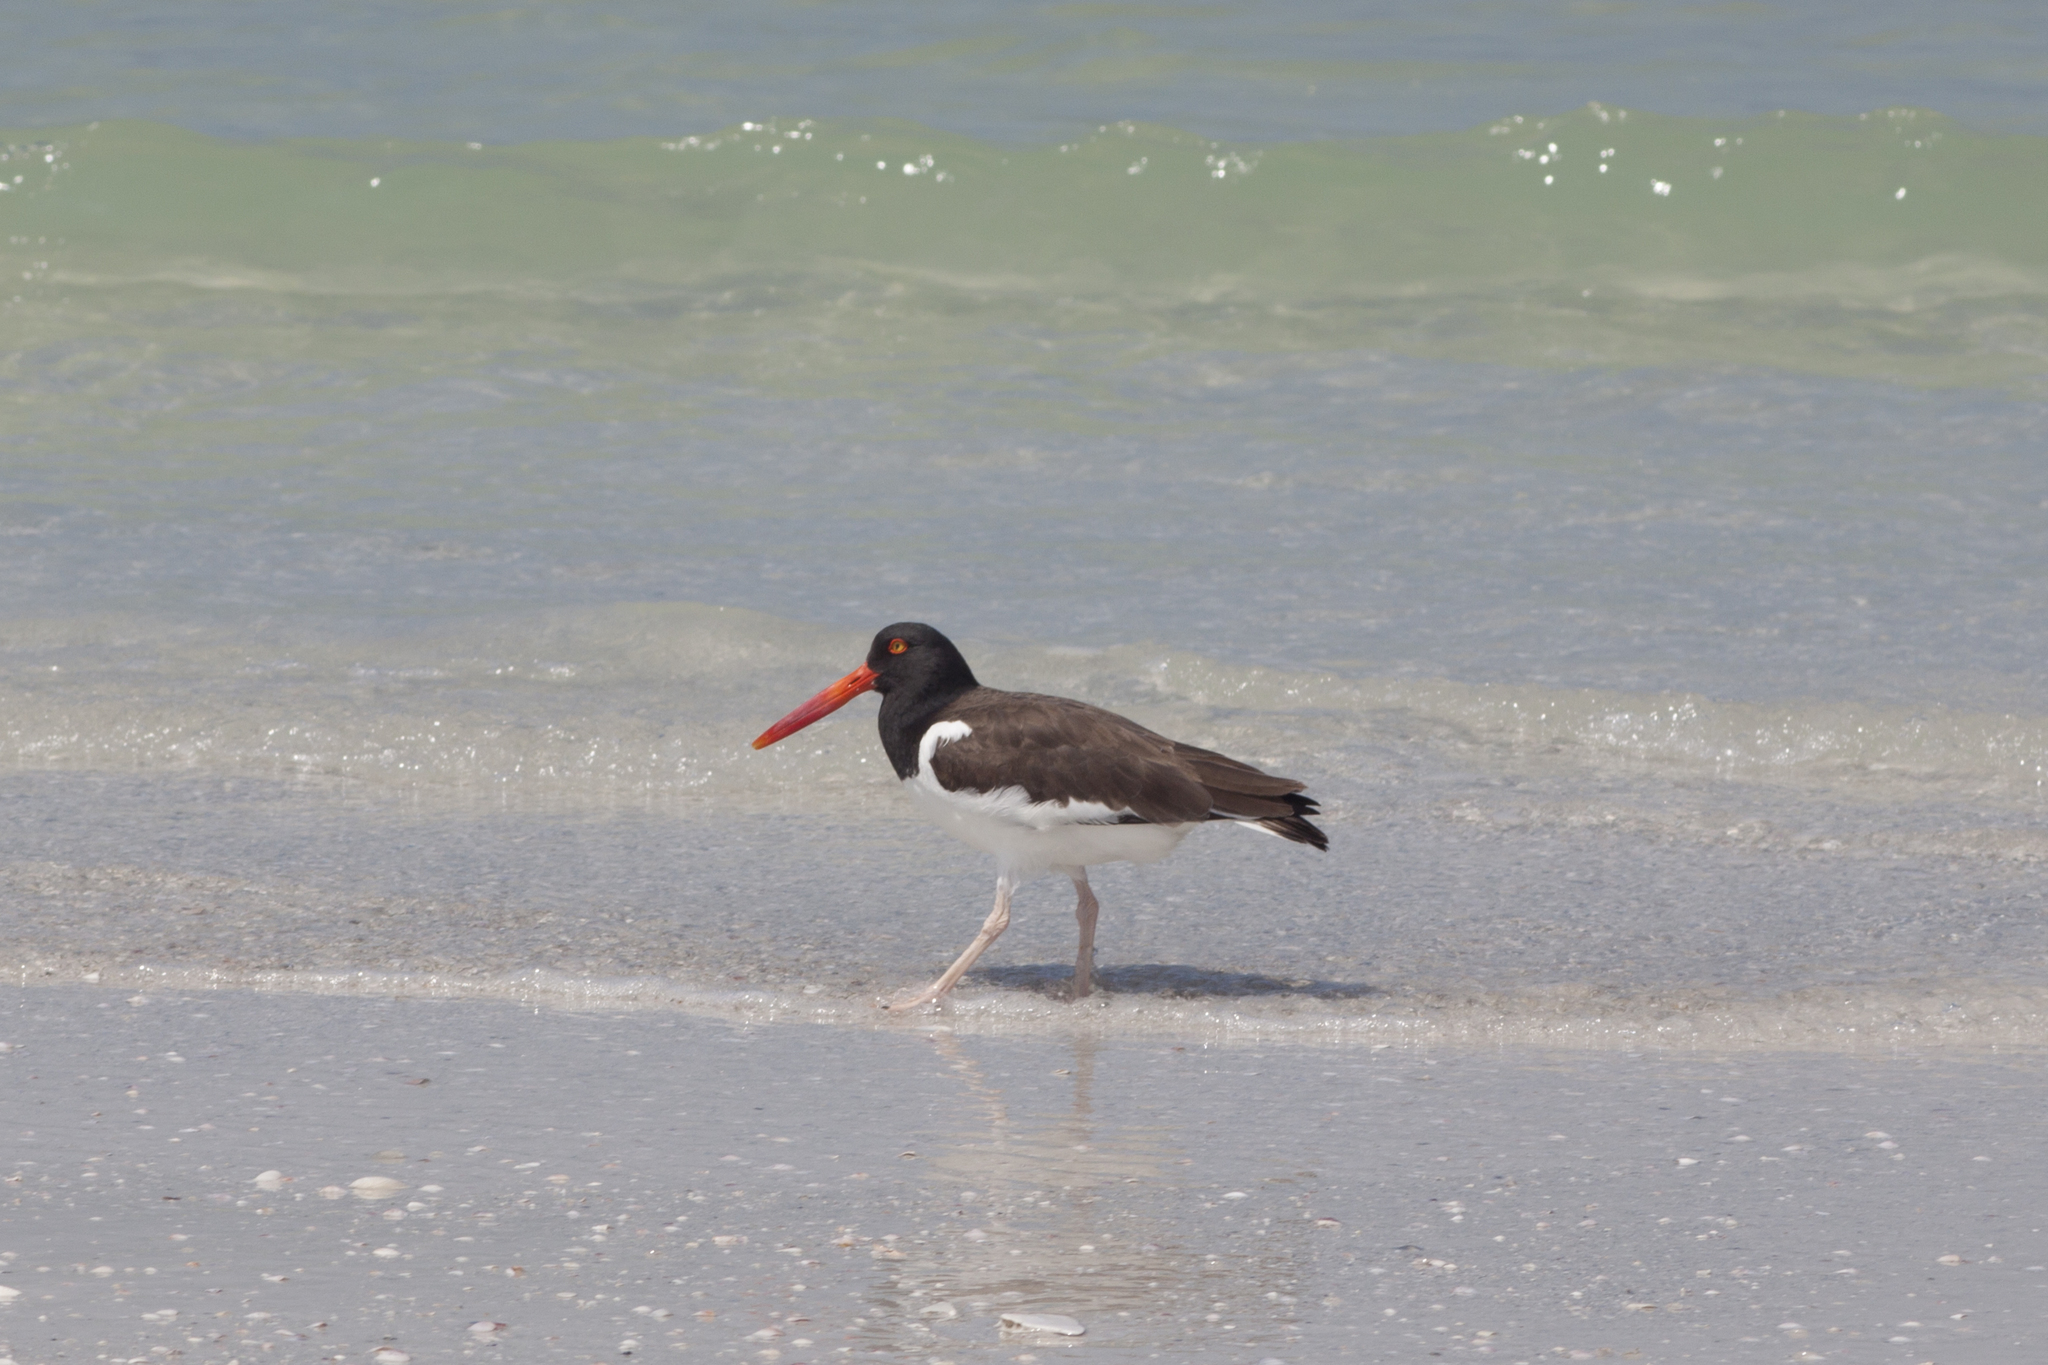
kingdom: Animalia
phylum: Chordata
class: Aves
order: Charadriiformes
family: Haematopodidae
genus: Haematopus
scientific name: Haematopus palliatus
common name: American oystercatcher
